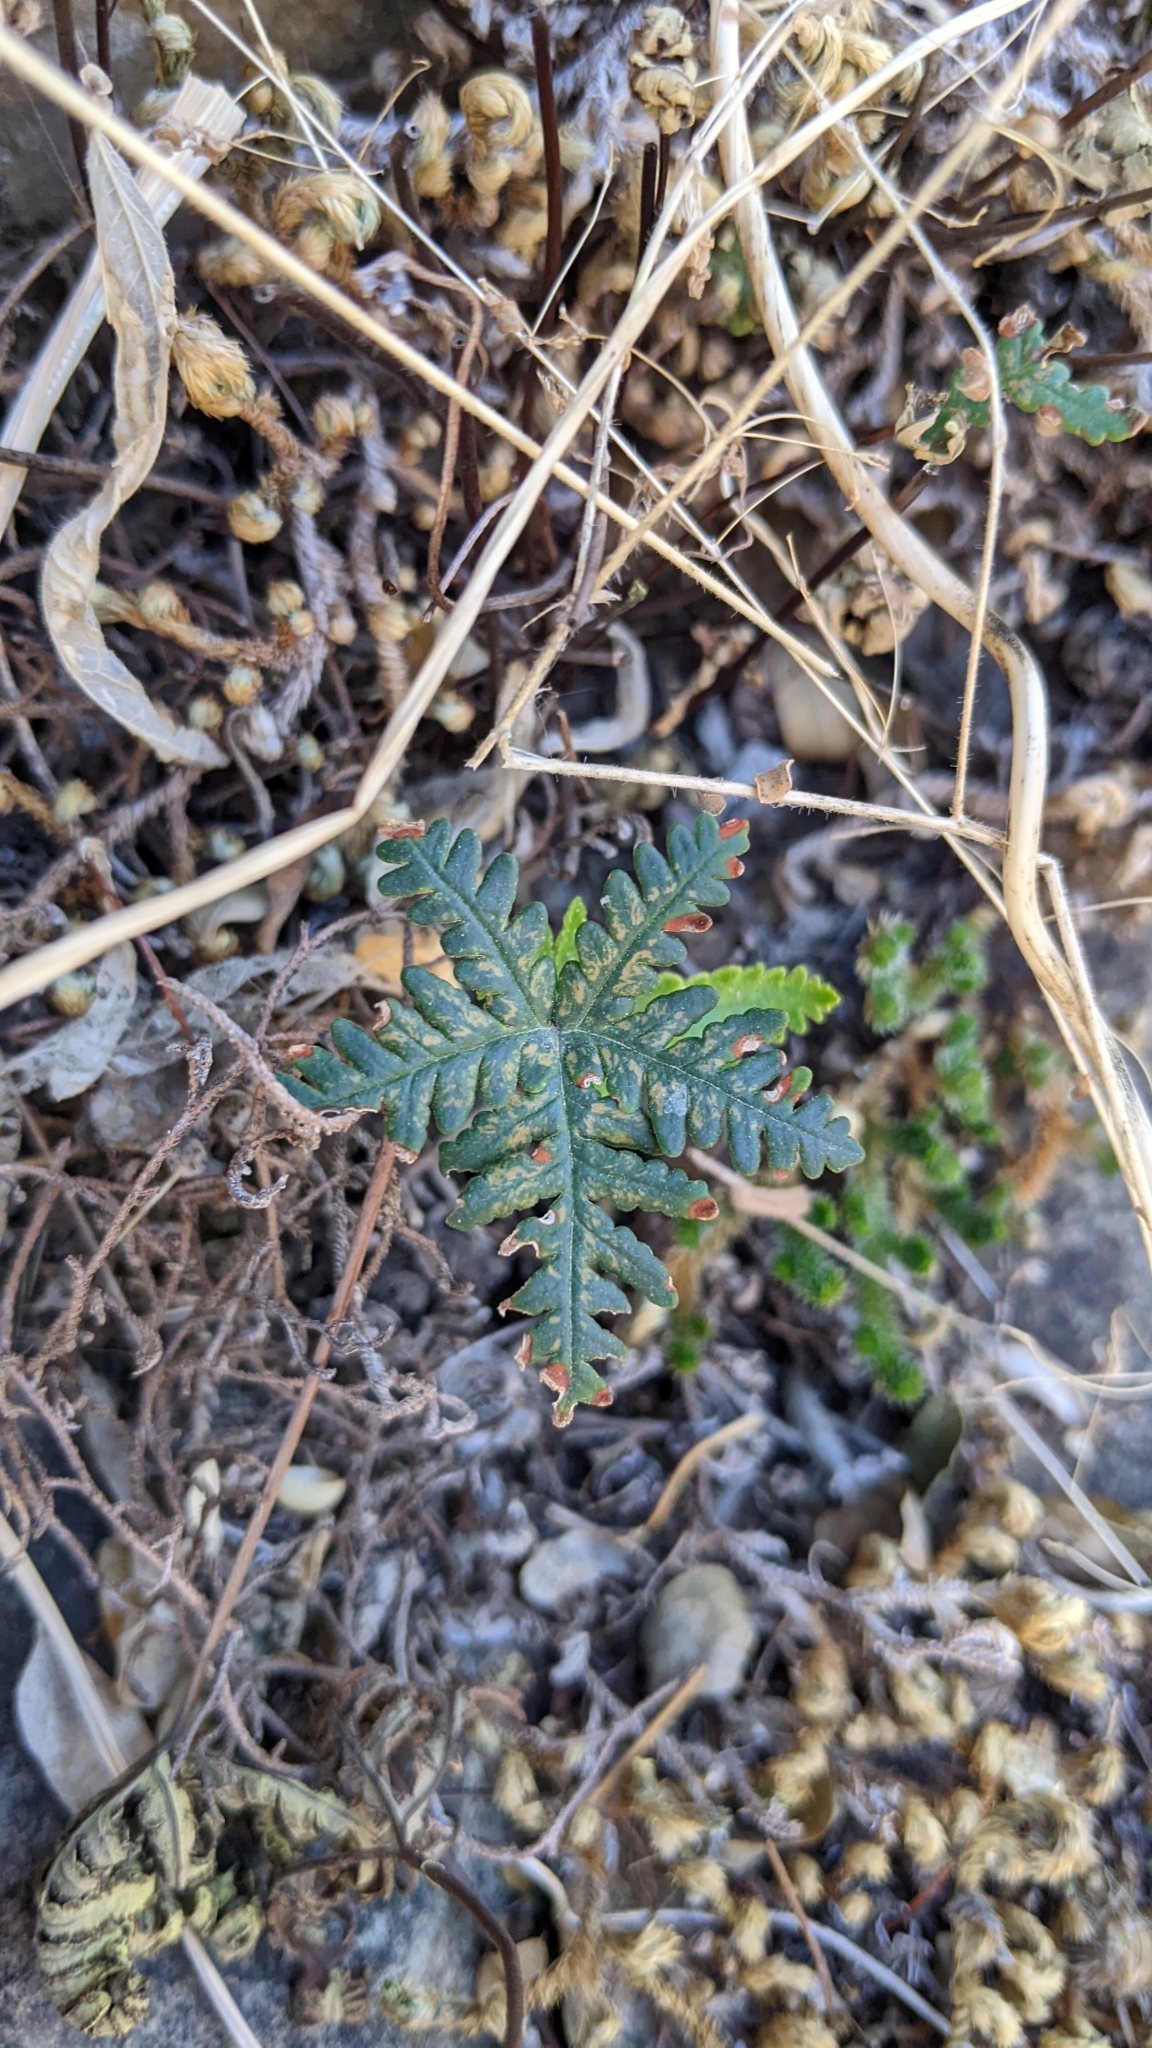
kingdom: Plantae
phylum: Tracheophyta
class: Polypodiopsida
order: Polypodiales
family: Pteridaceae
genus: Notholaena
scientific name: Notholaena standleyi
